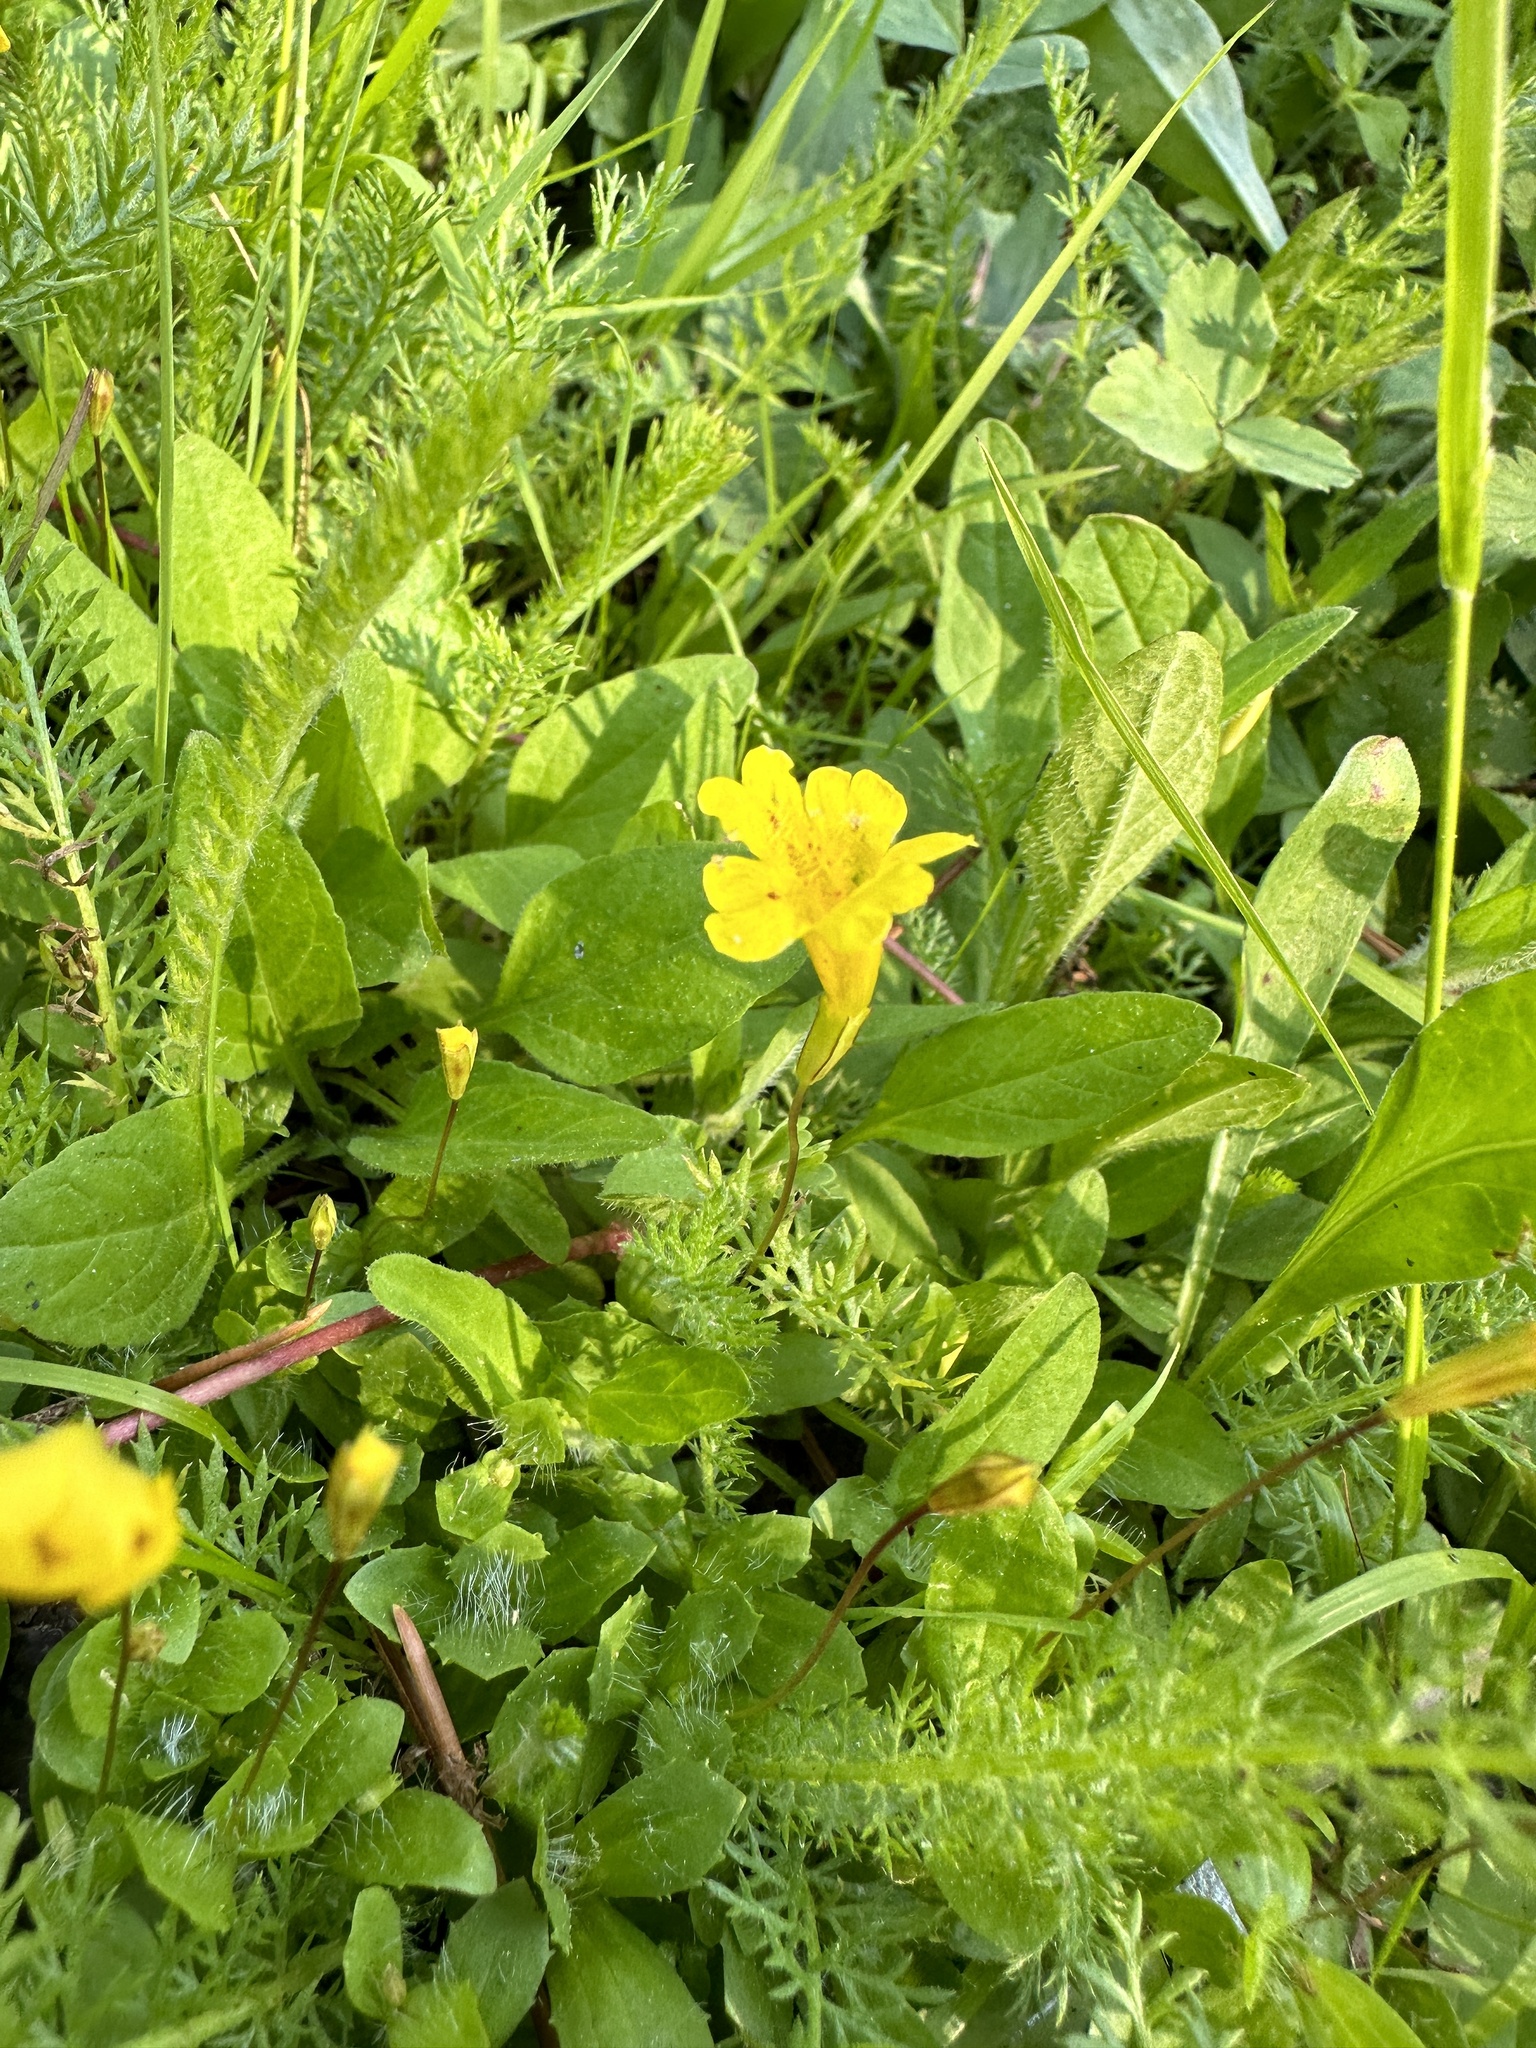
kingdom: Plantae
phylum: Tracheophyta
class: Magnoliopsida
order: Lamiales
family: Phrymaceae
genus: Erythranthe
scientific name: Erythranthe primuloides
